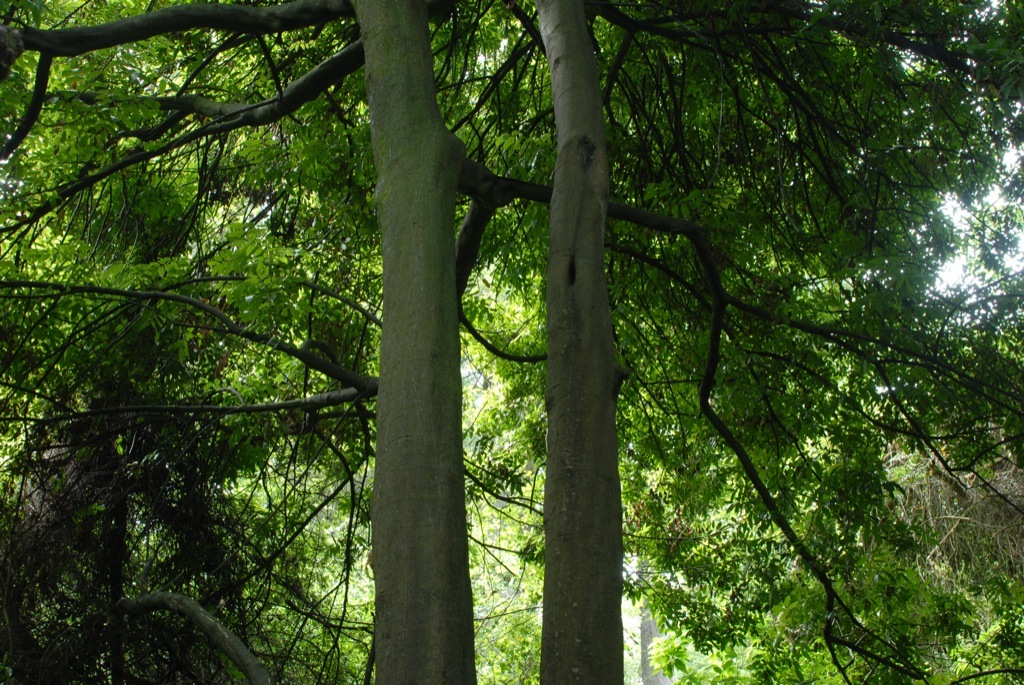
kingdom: Plantae
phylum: Tracheophyta
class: Magnoliopsida
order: Sapindales
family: Sapindaceae
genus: Alectryon
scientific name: Alectryon excelsus
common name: Three kings titoki
